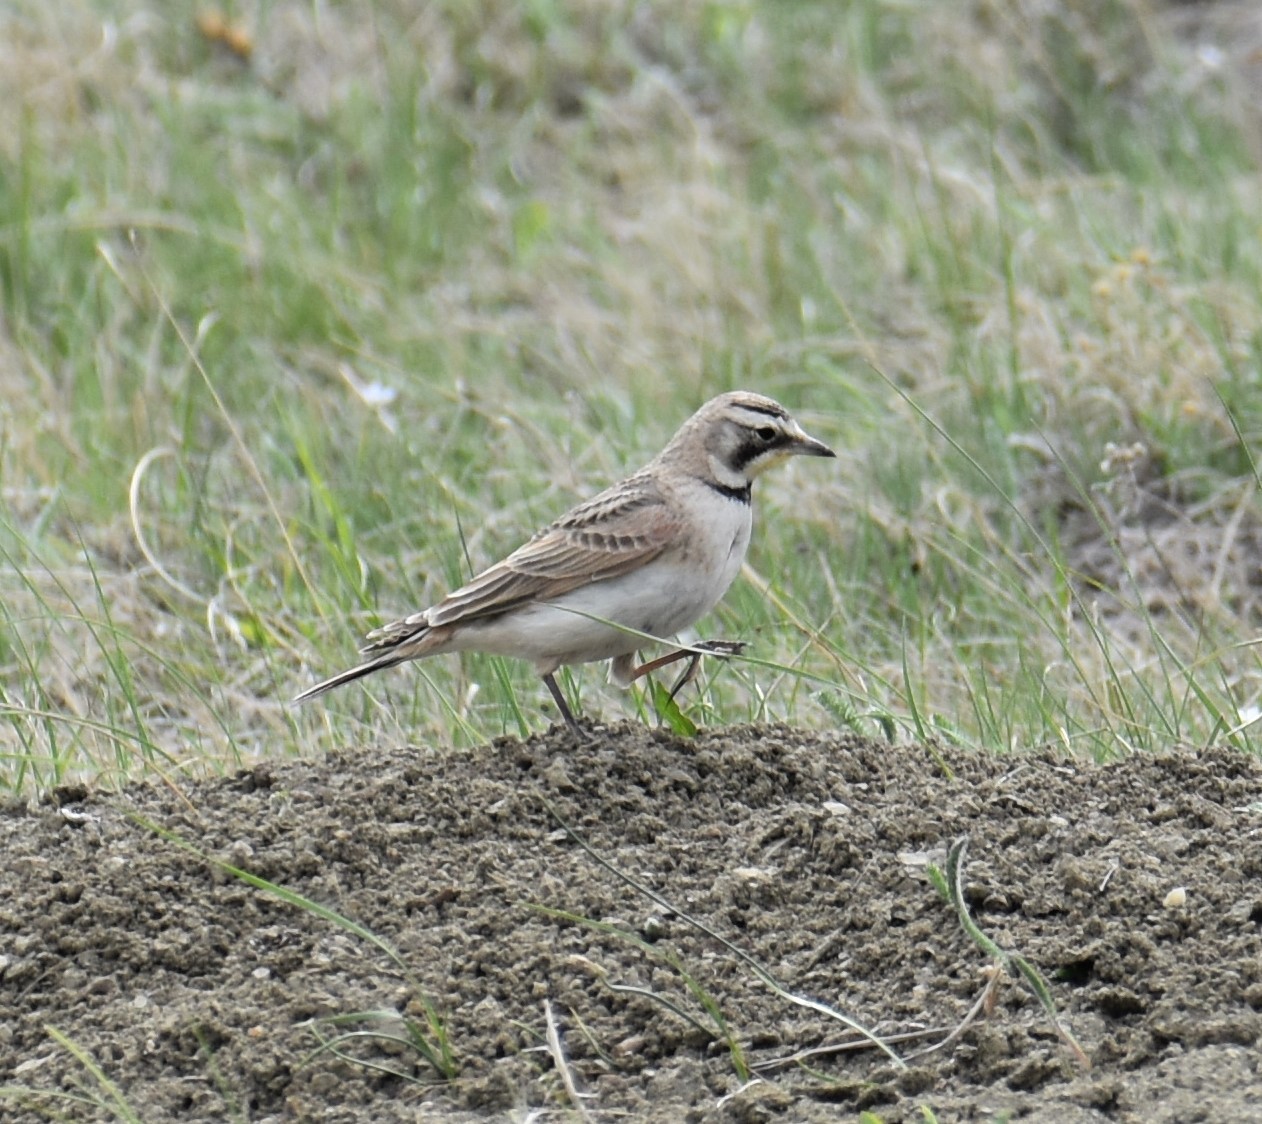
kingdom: Animalia
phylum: Chordata
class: Aves
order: Passeriformes
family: Alaudidae
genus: Eremophila
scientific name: Eremophila alpestris
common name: Horned lark
